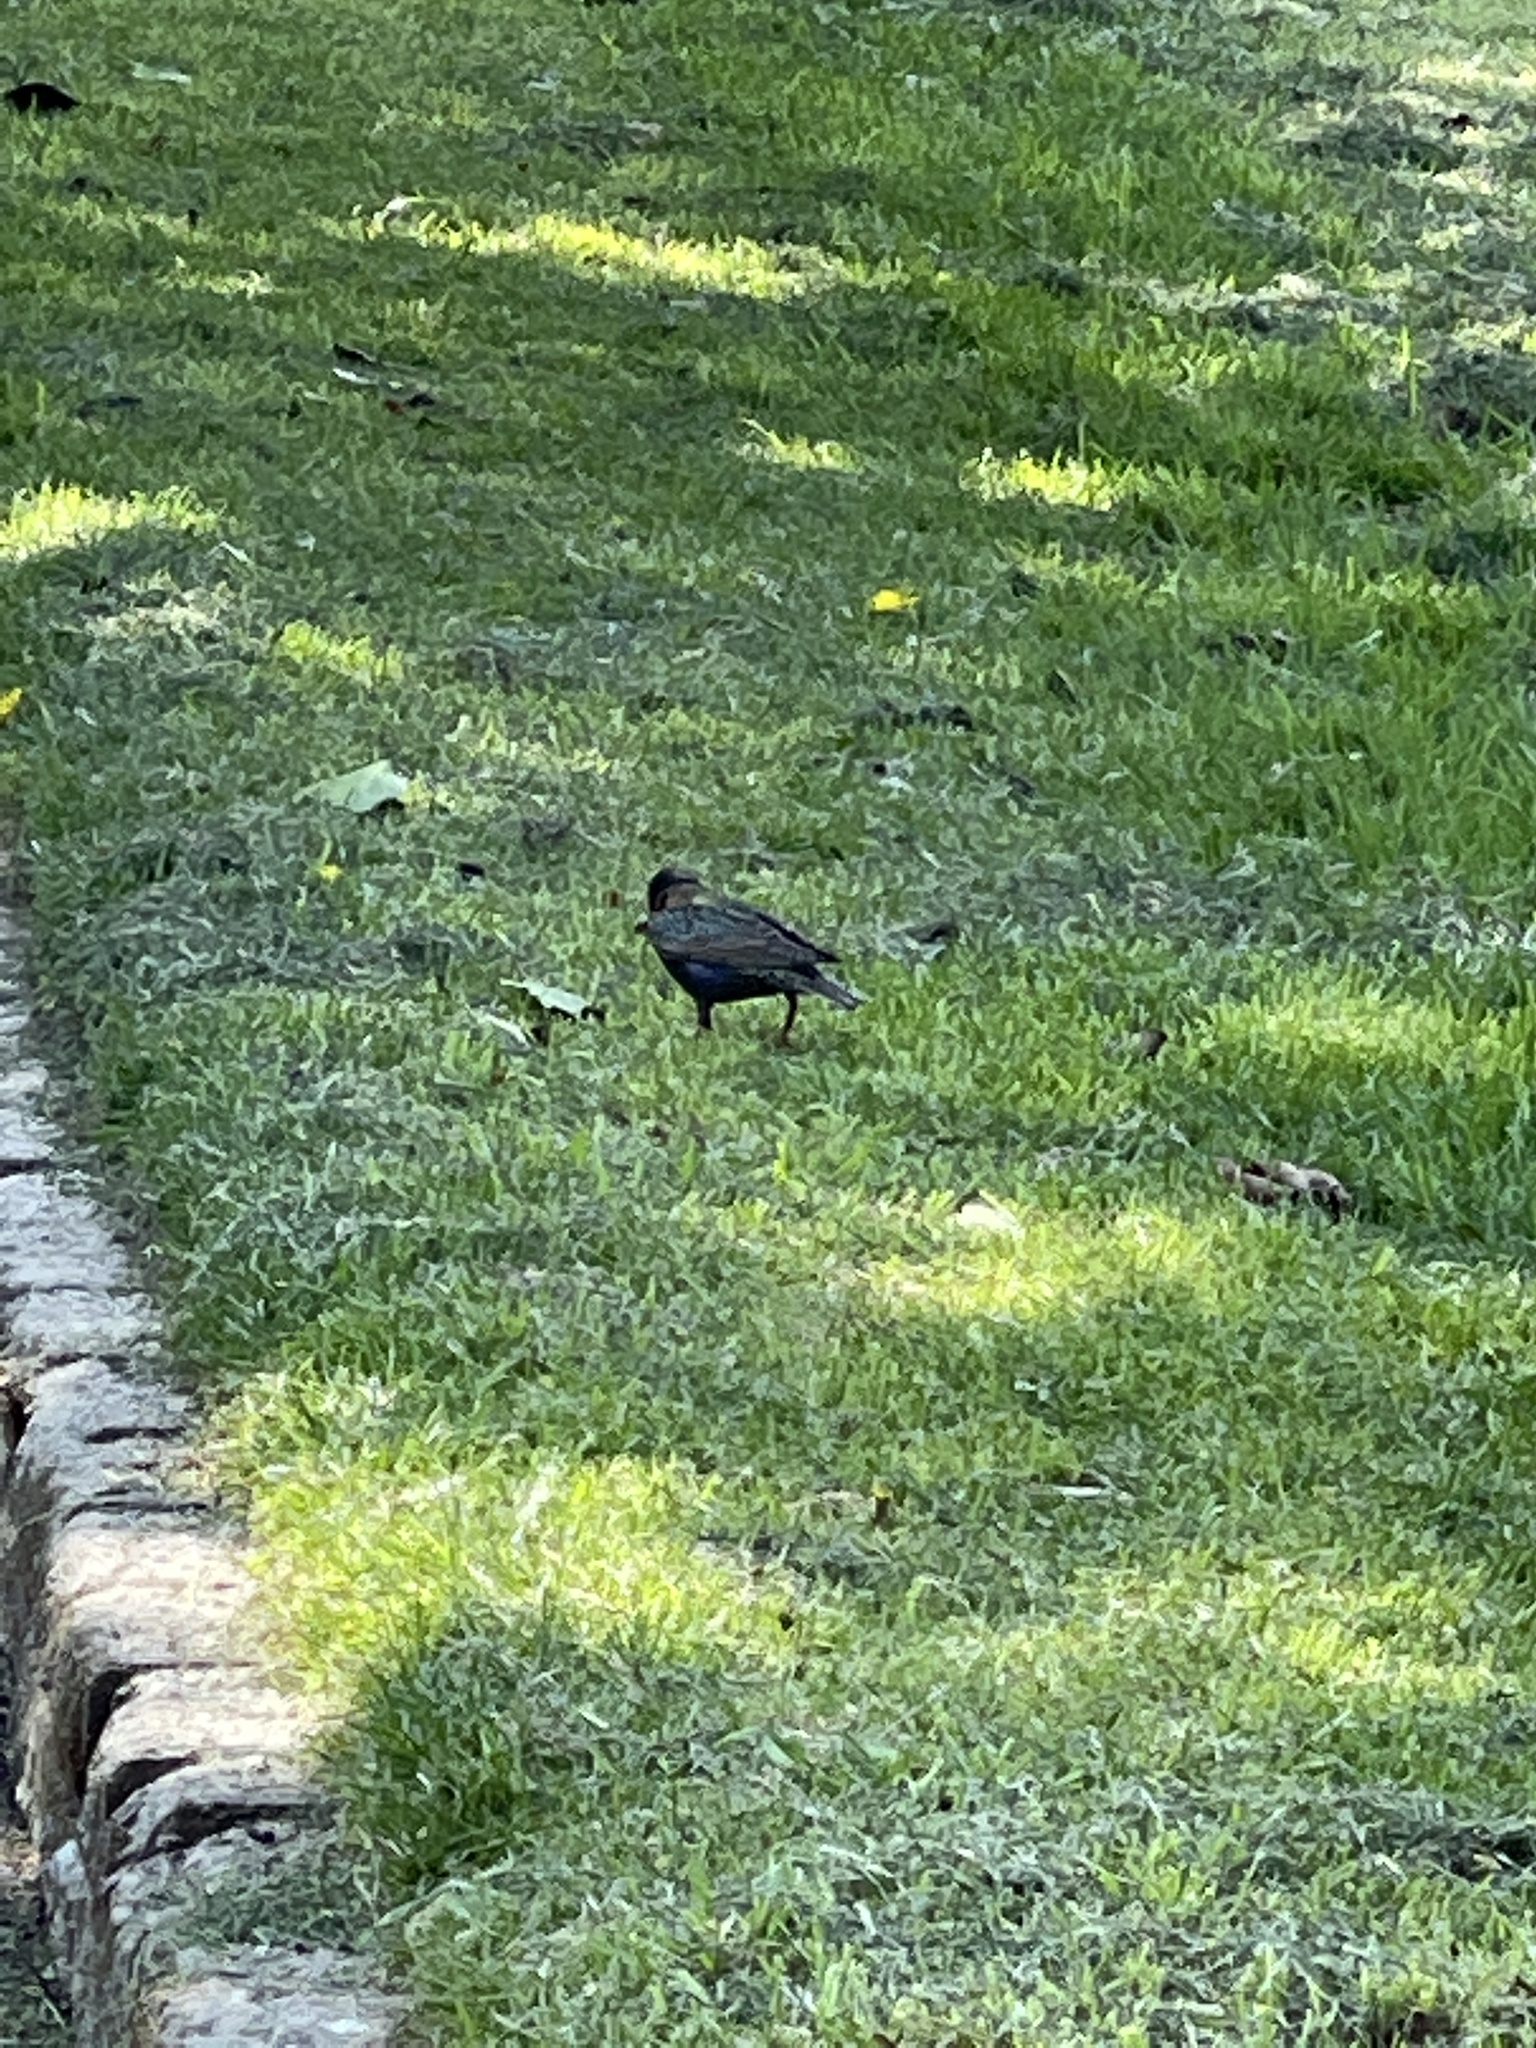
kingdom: Animalia
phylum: Chordata
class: Aves
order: Passeriformes
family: Sturnidae
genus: Sturnus
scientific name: Sturnus vulgaris
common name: Common starling
